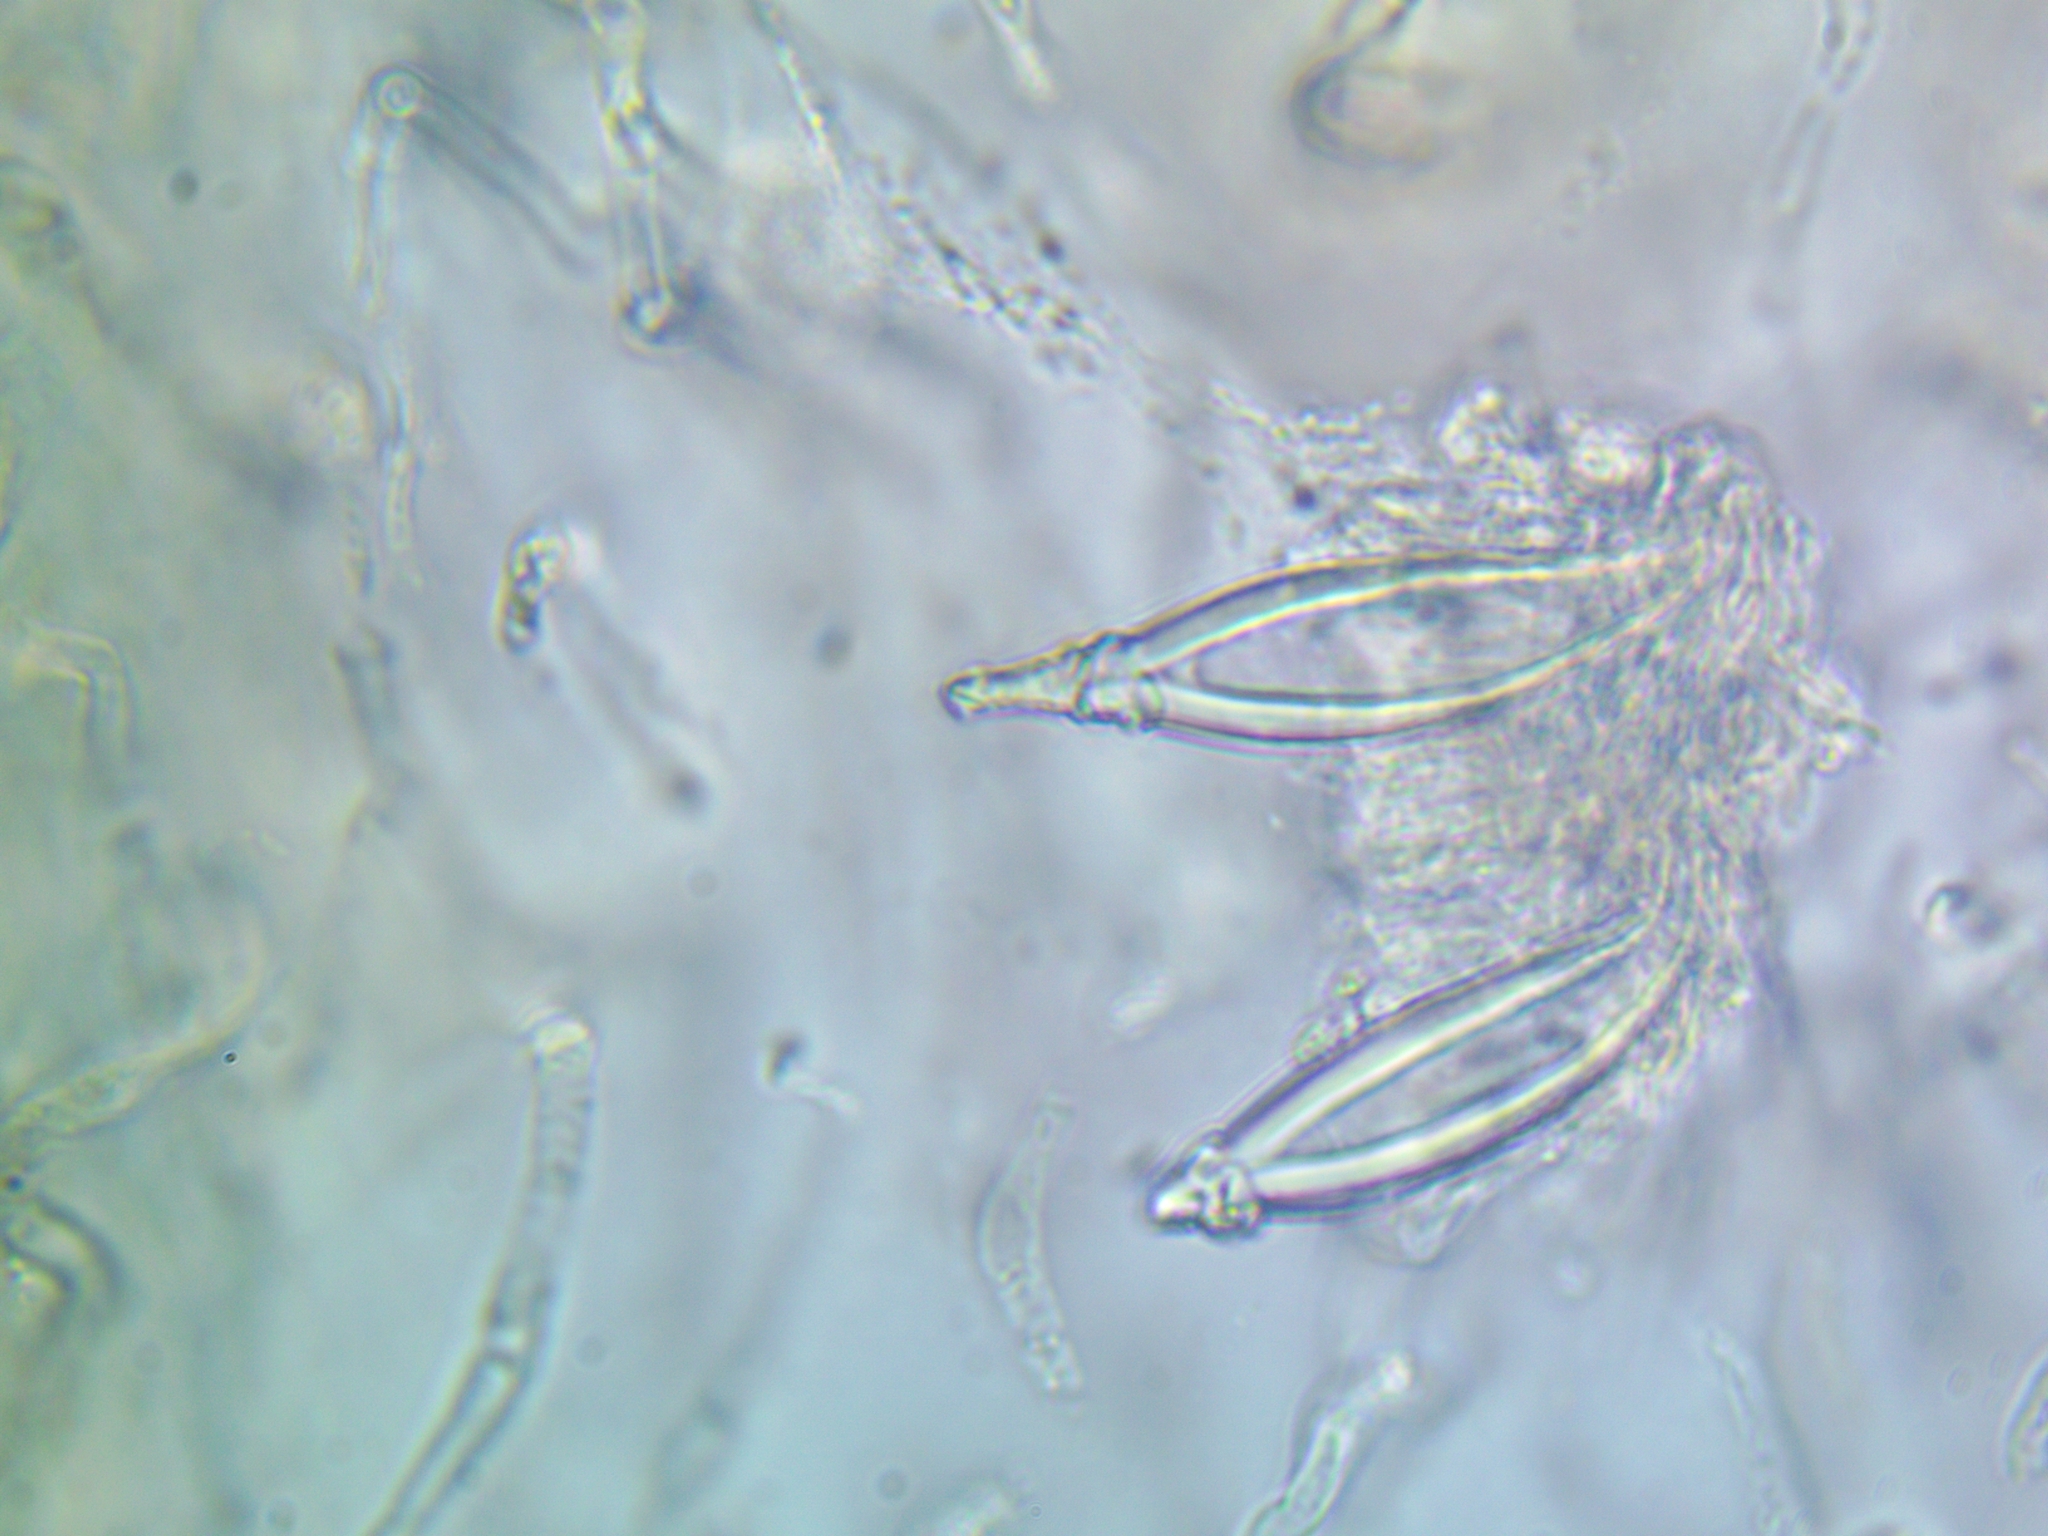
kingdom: Fungi
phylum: Basidiomycota
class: Agaricomycetes
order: Agaricales
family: Pleurotaceae
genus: Hohenbuehelia
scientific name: Hohenbuehelia auriscalpium
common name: Spatula oyster
